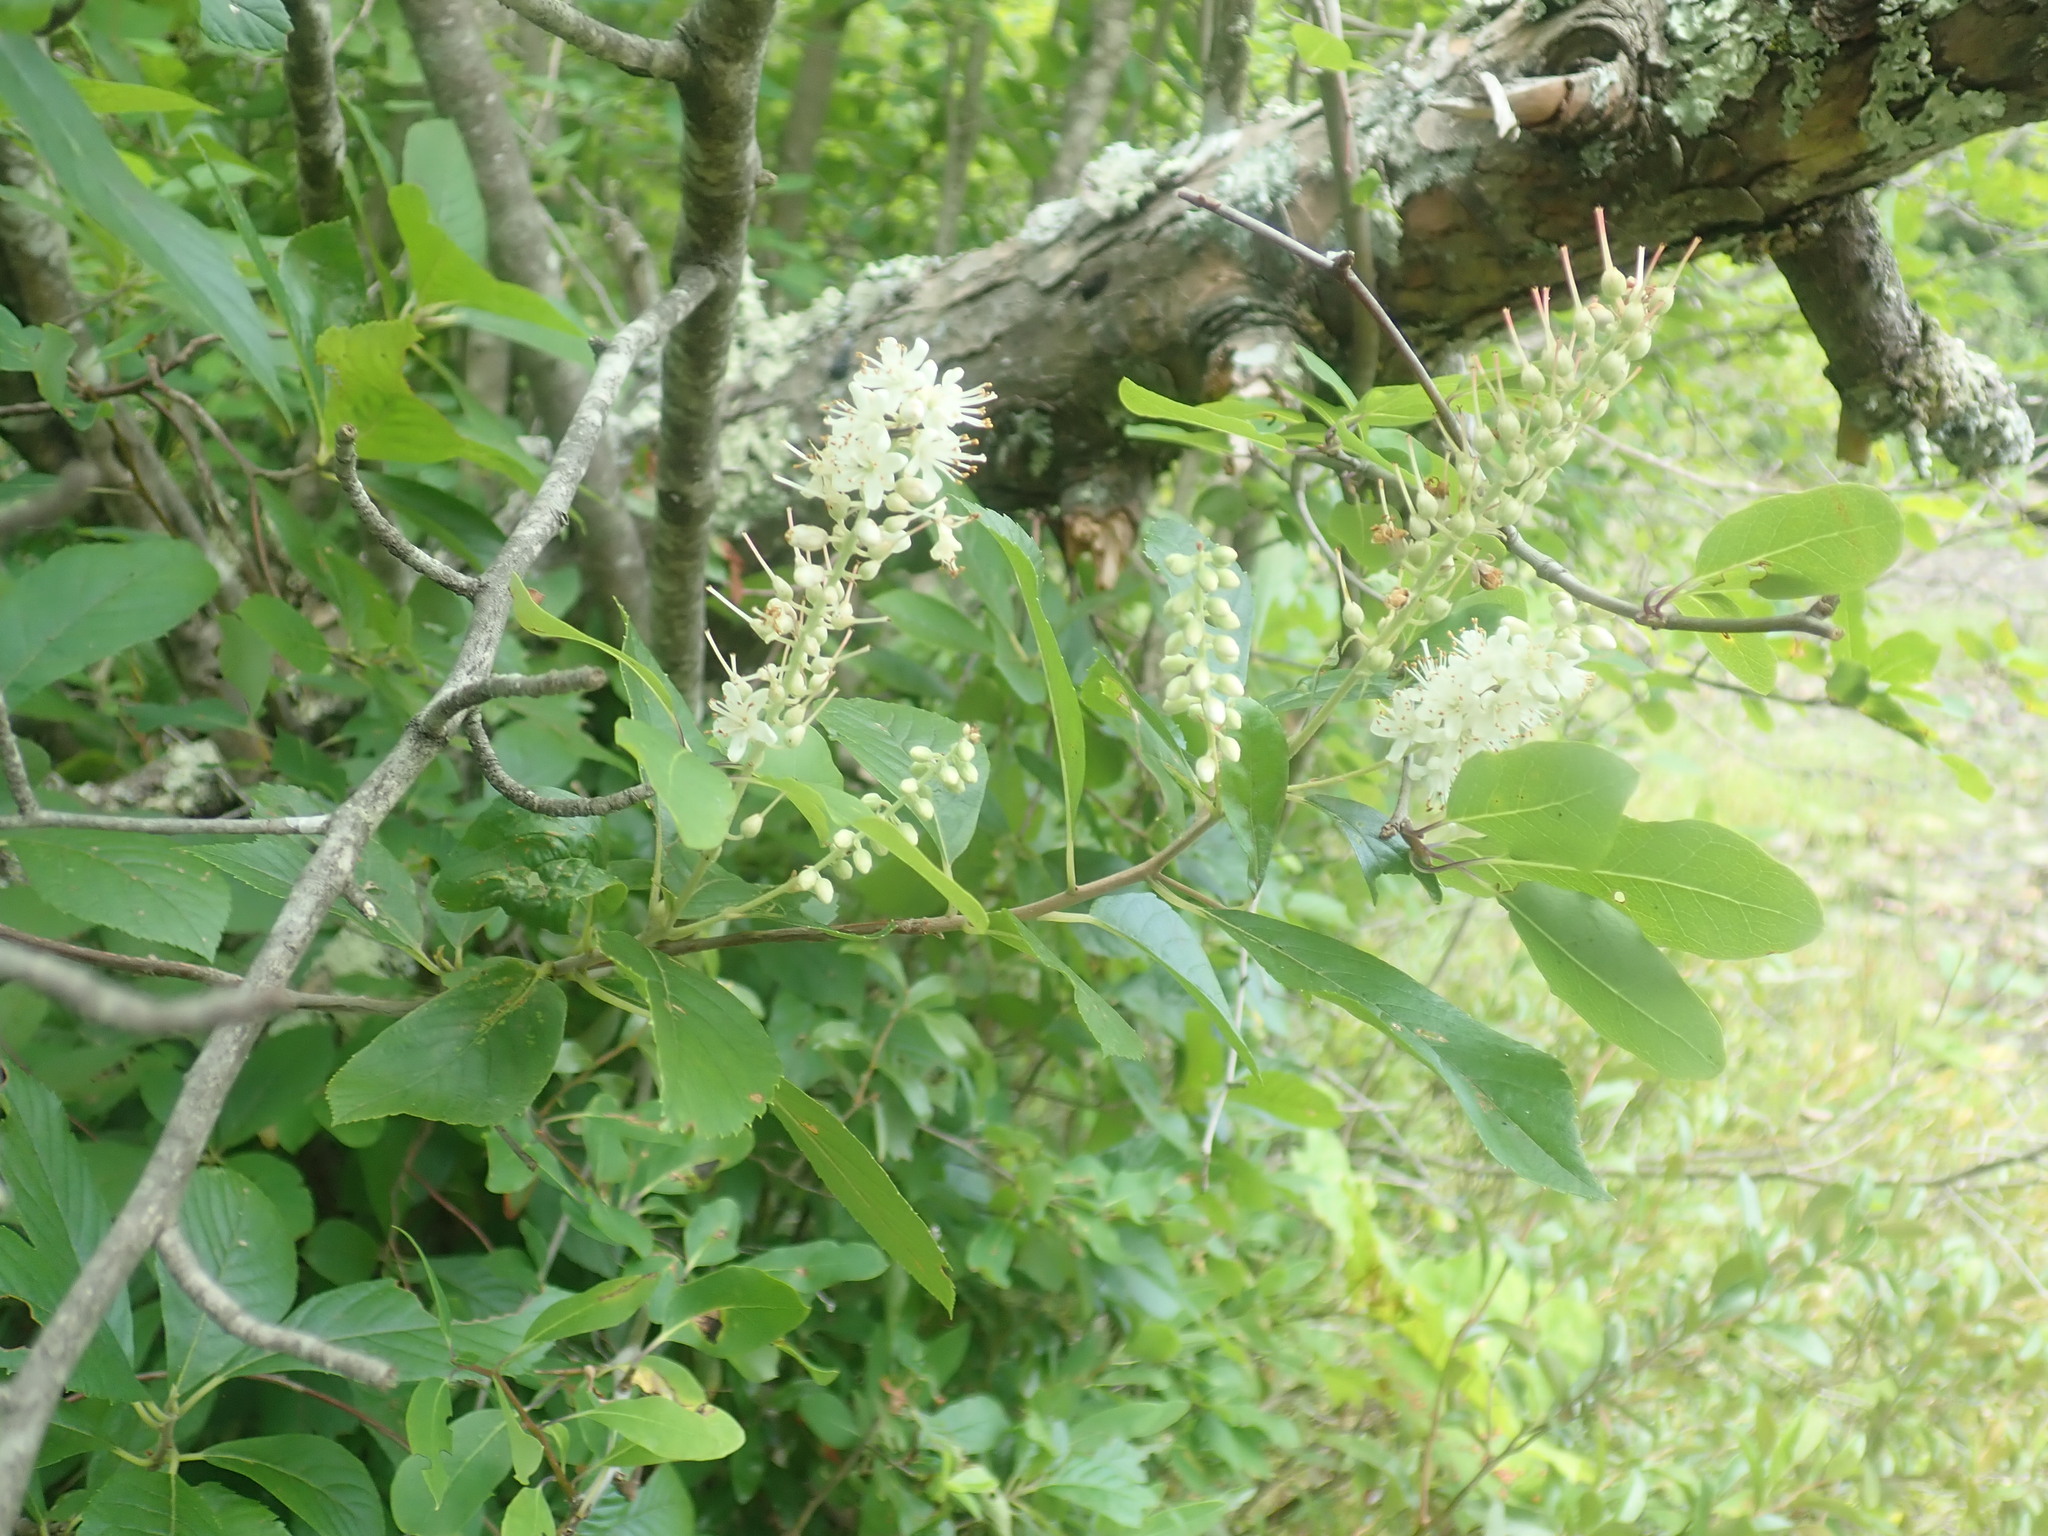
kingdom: Plantae
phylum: Tracheophyta
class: Magnoliopsida
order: Ericales
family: Clethraceae
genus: Clethra
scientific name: Clethra alnifolia
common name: Sweet pepperbush
